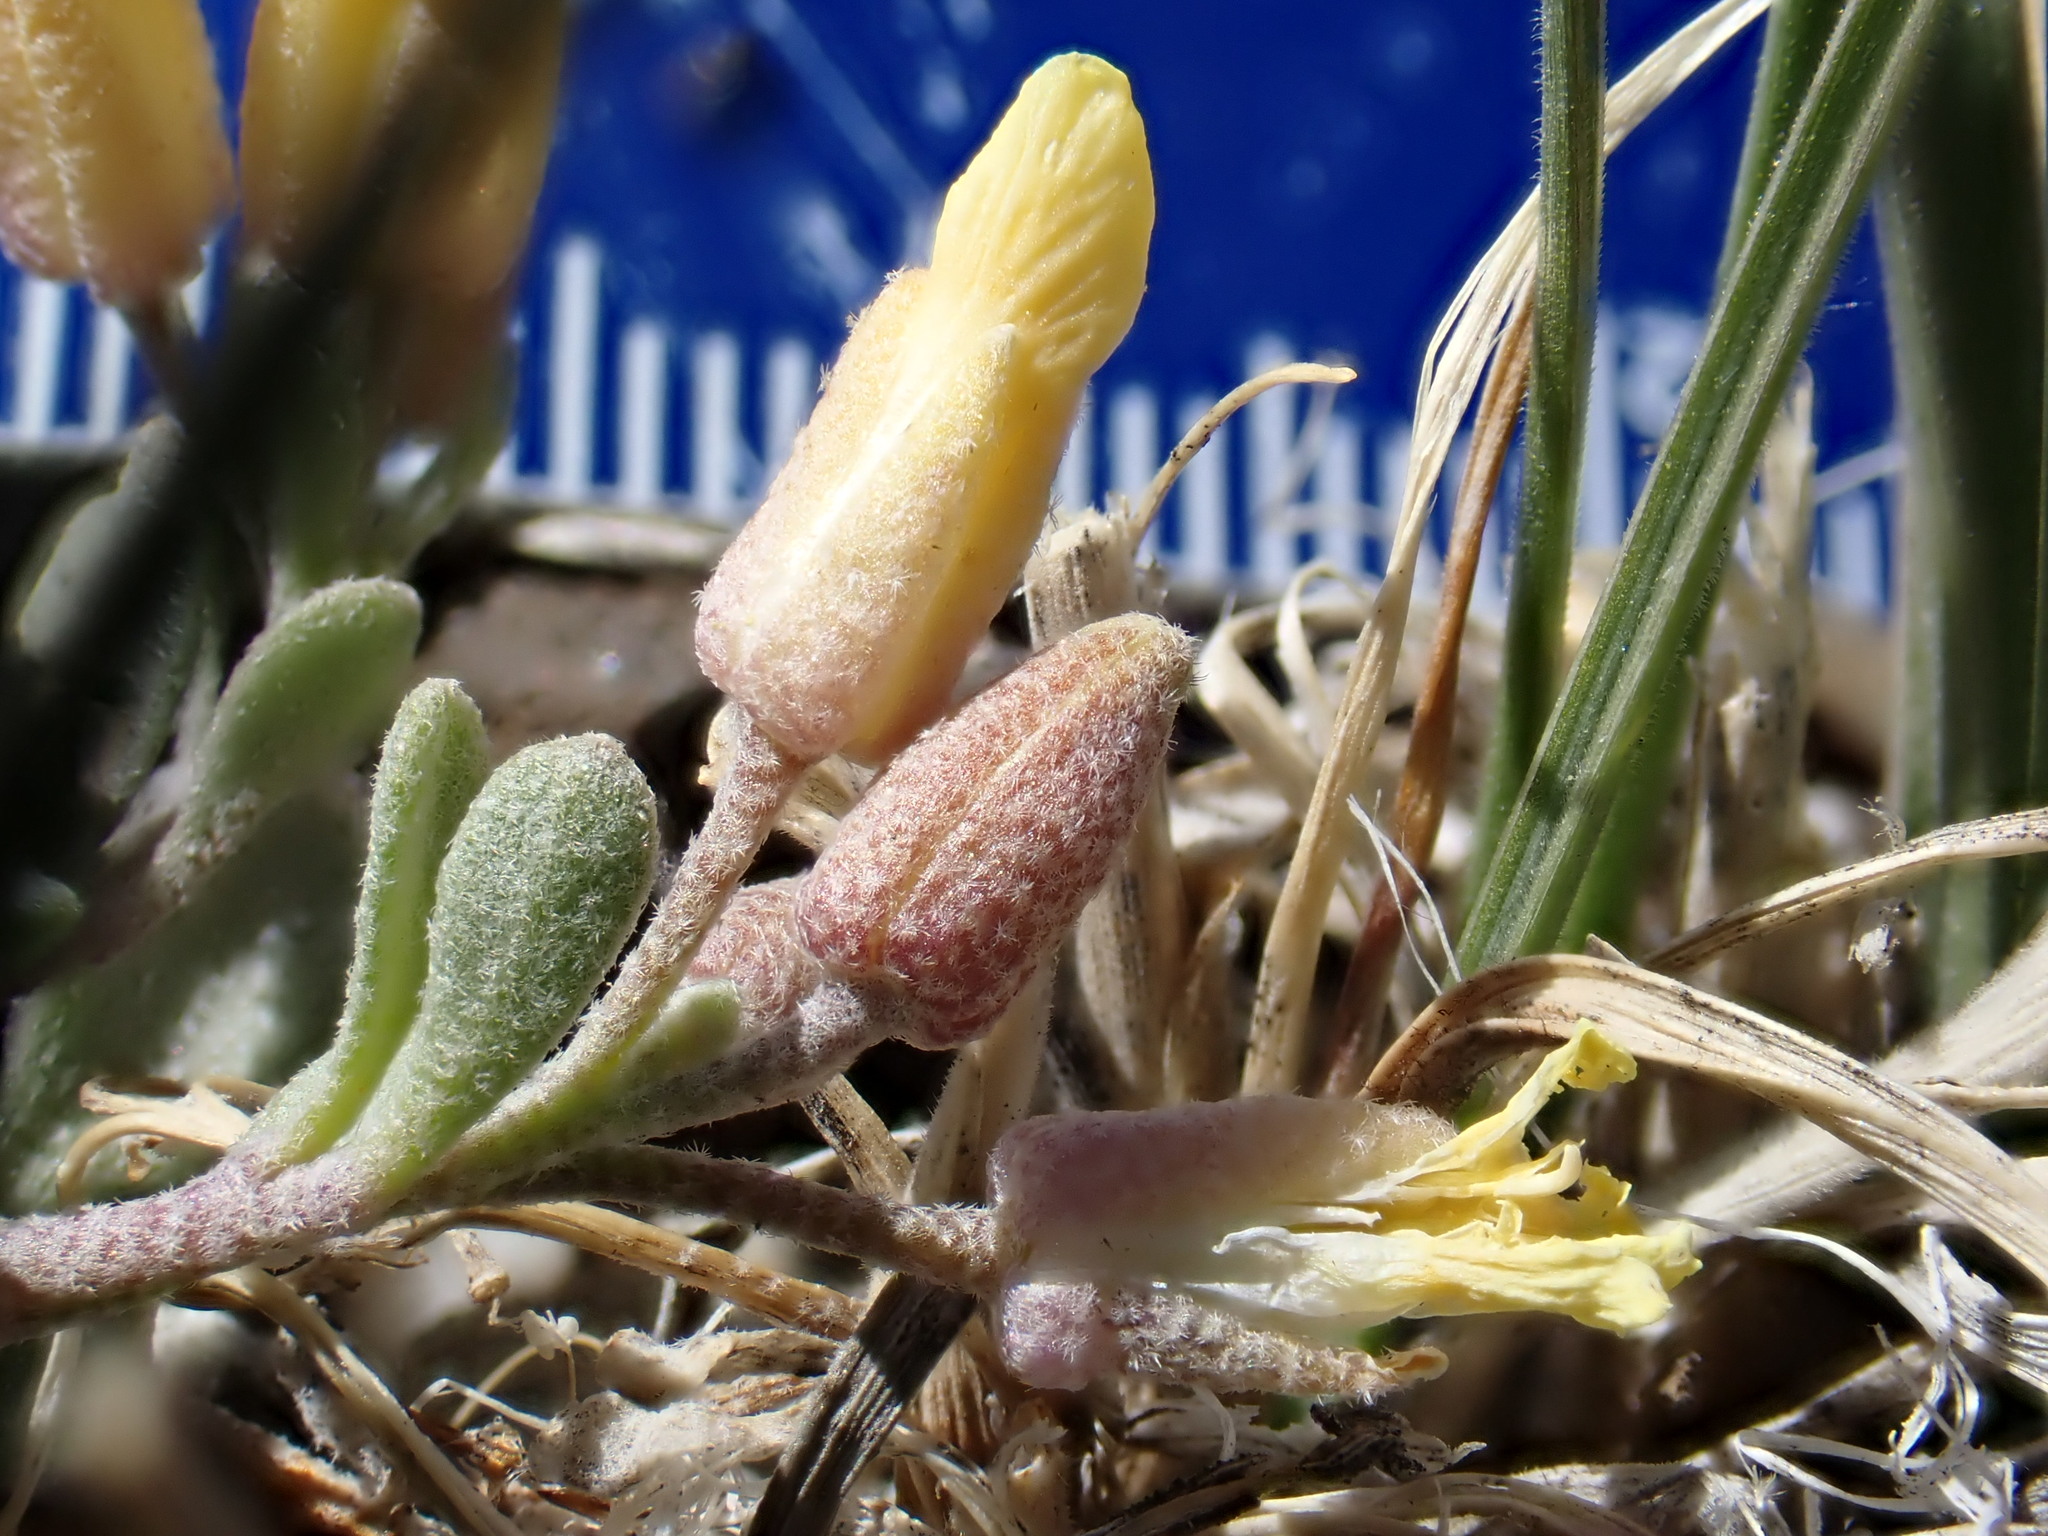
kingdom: Plantae
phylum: Tracheophyta
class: Magnoliopsida
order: Brassicales
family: Brassicaceae
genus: Physaria
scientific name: Physaria kingii
